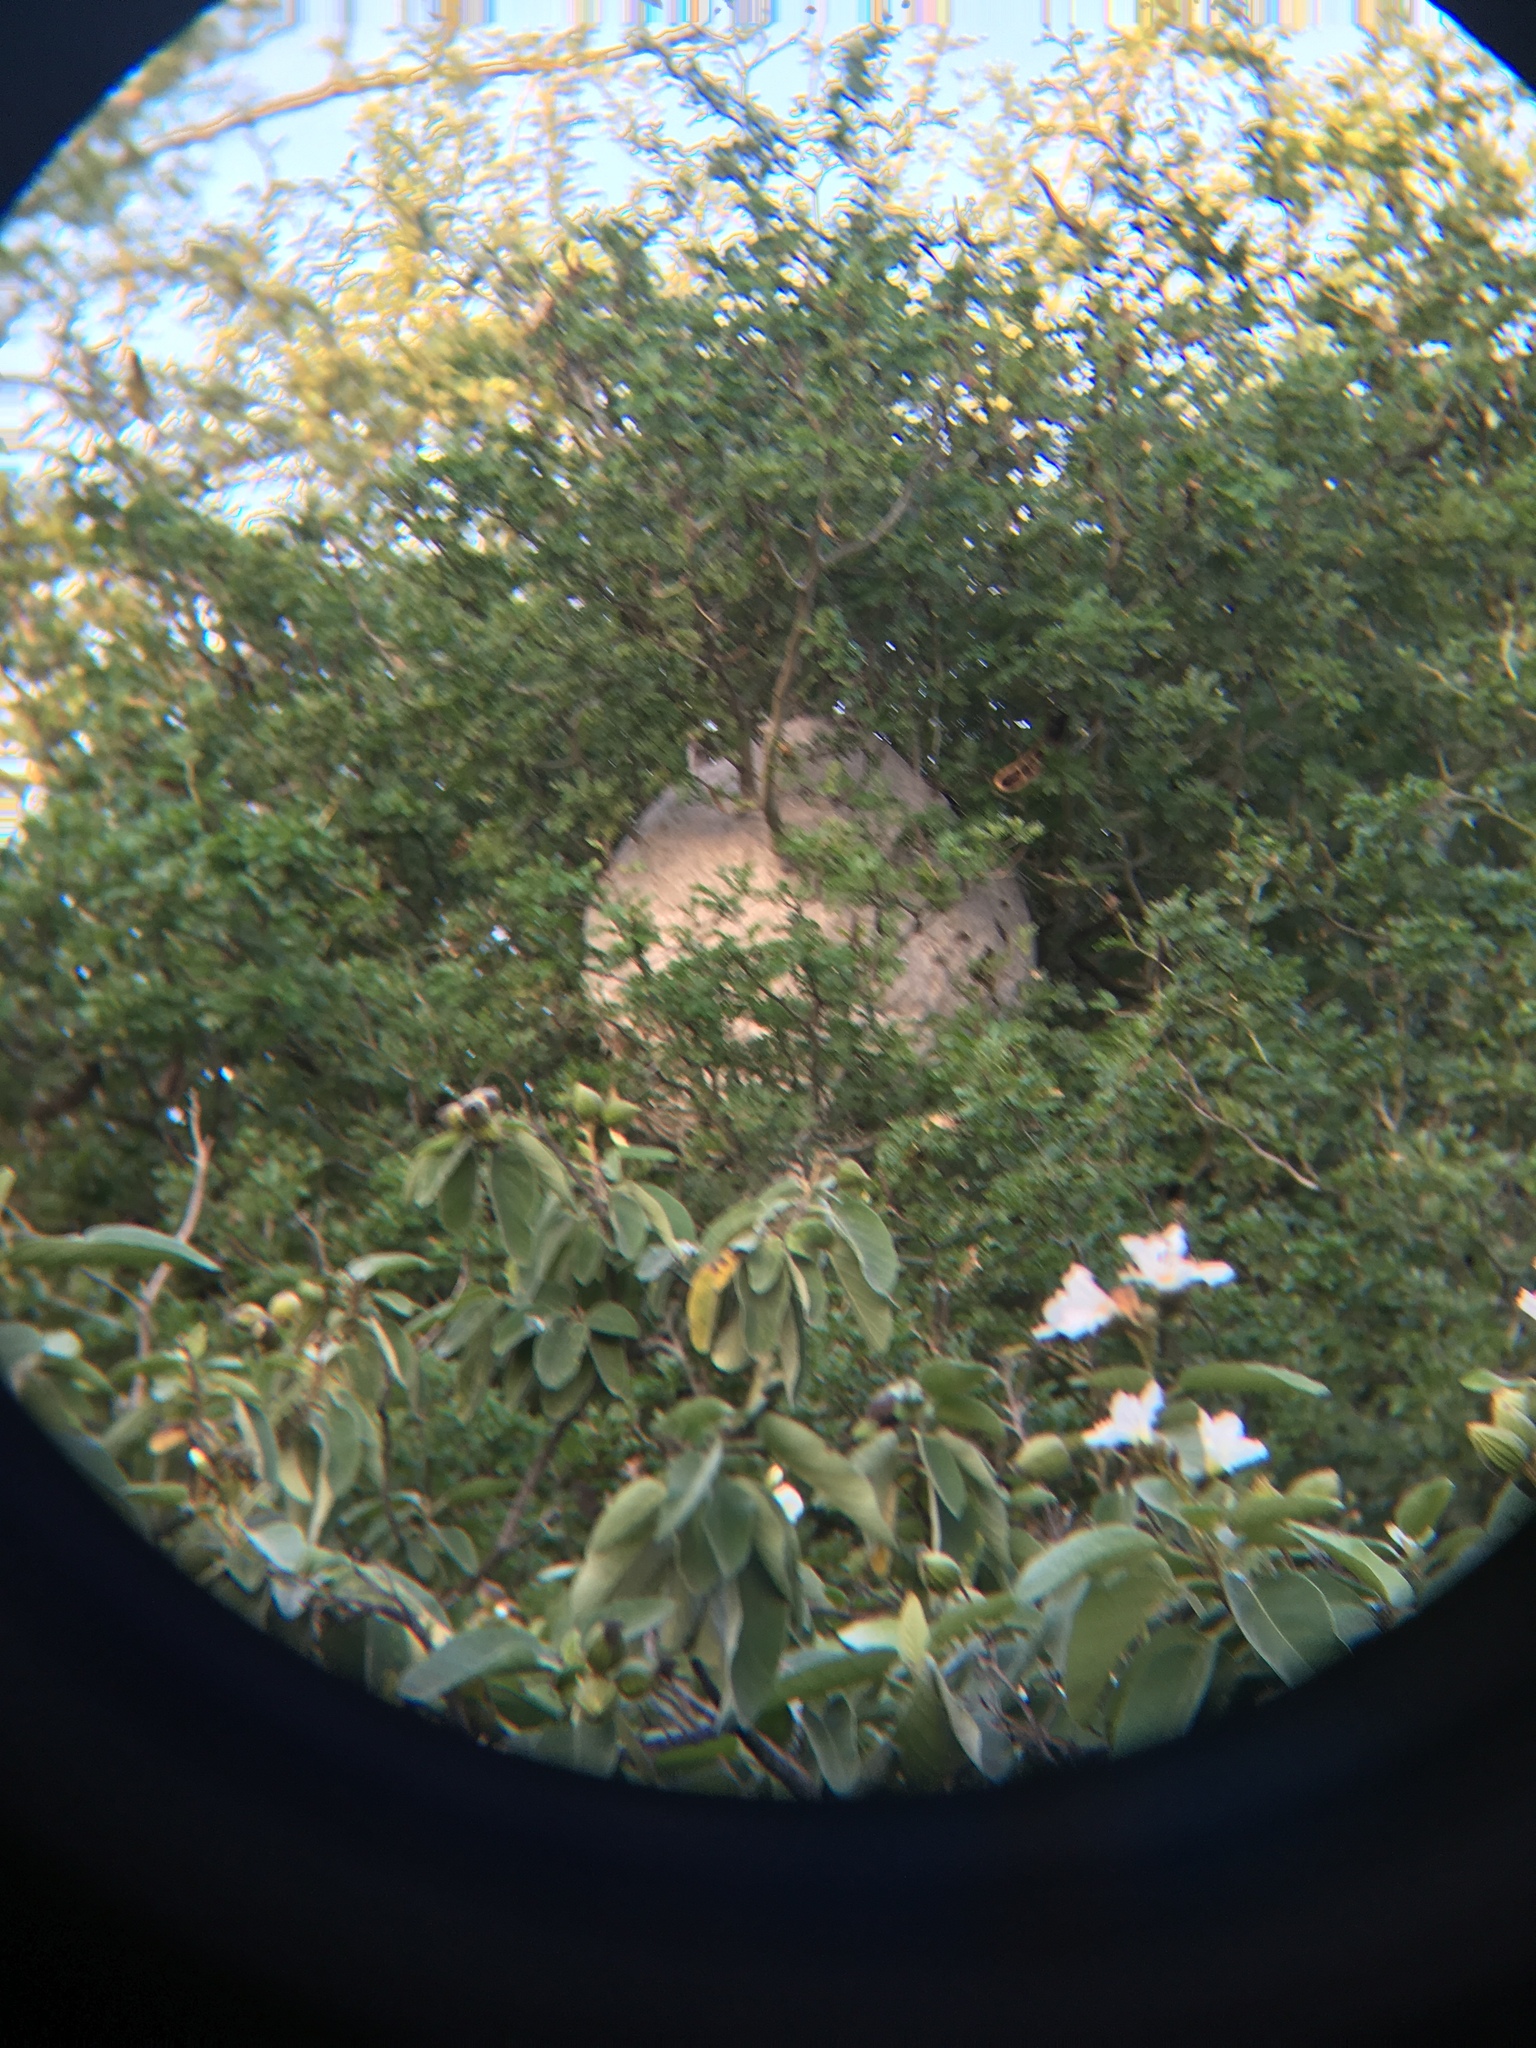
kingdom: Animalia
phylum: Arthropoda
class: Insecta
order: Hymenoptera
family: Vespidae
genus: Brachygastra
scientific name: Brachygastra mellifica
